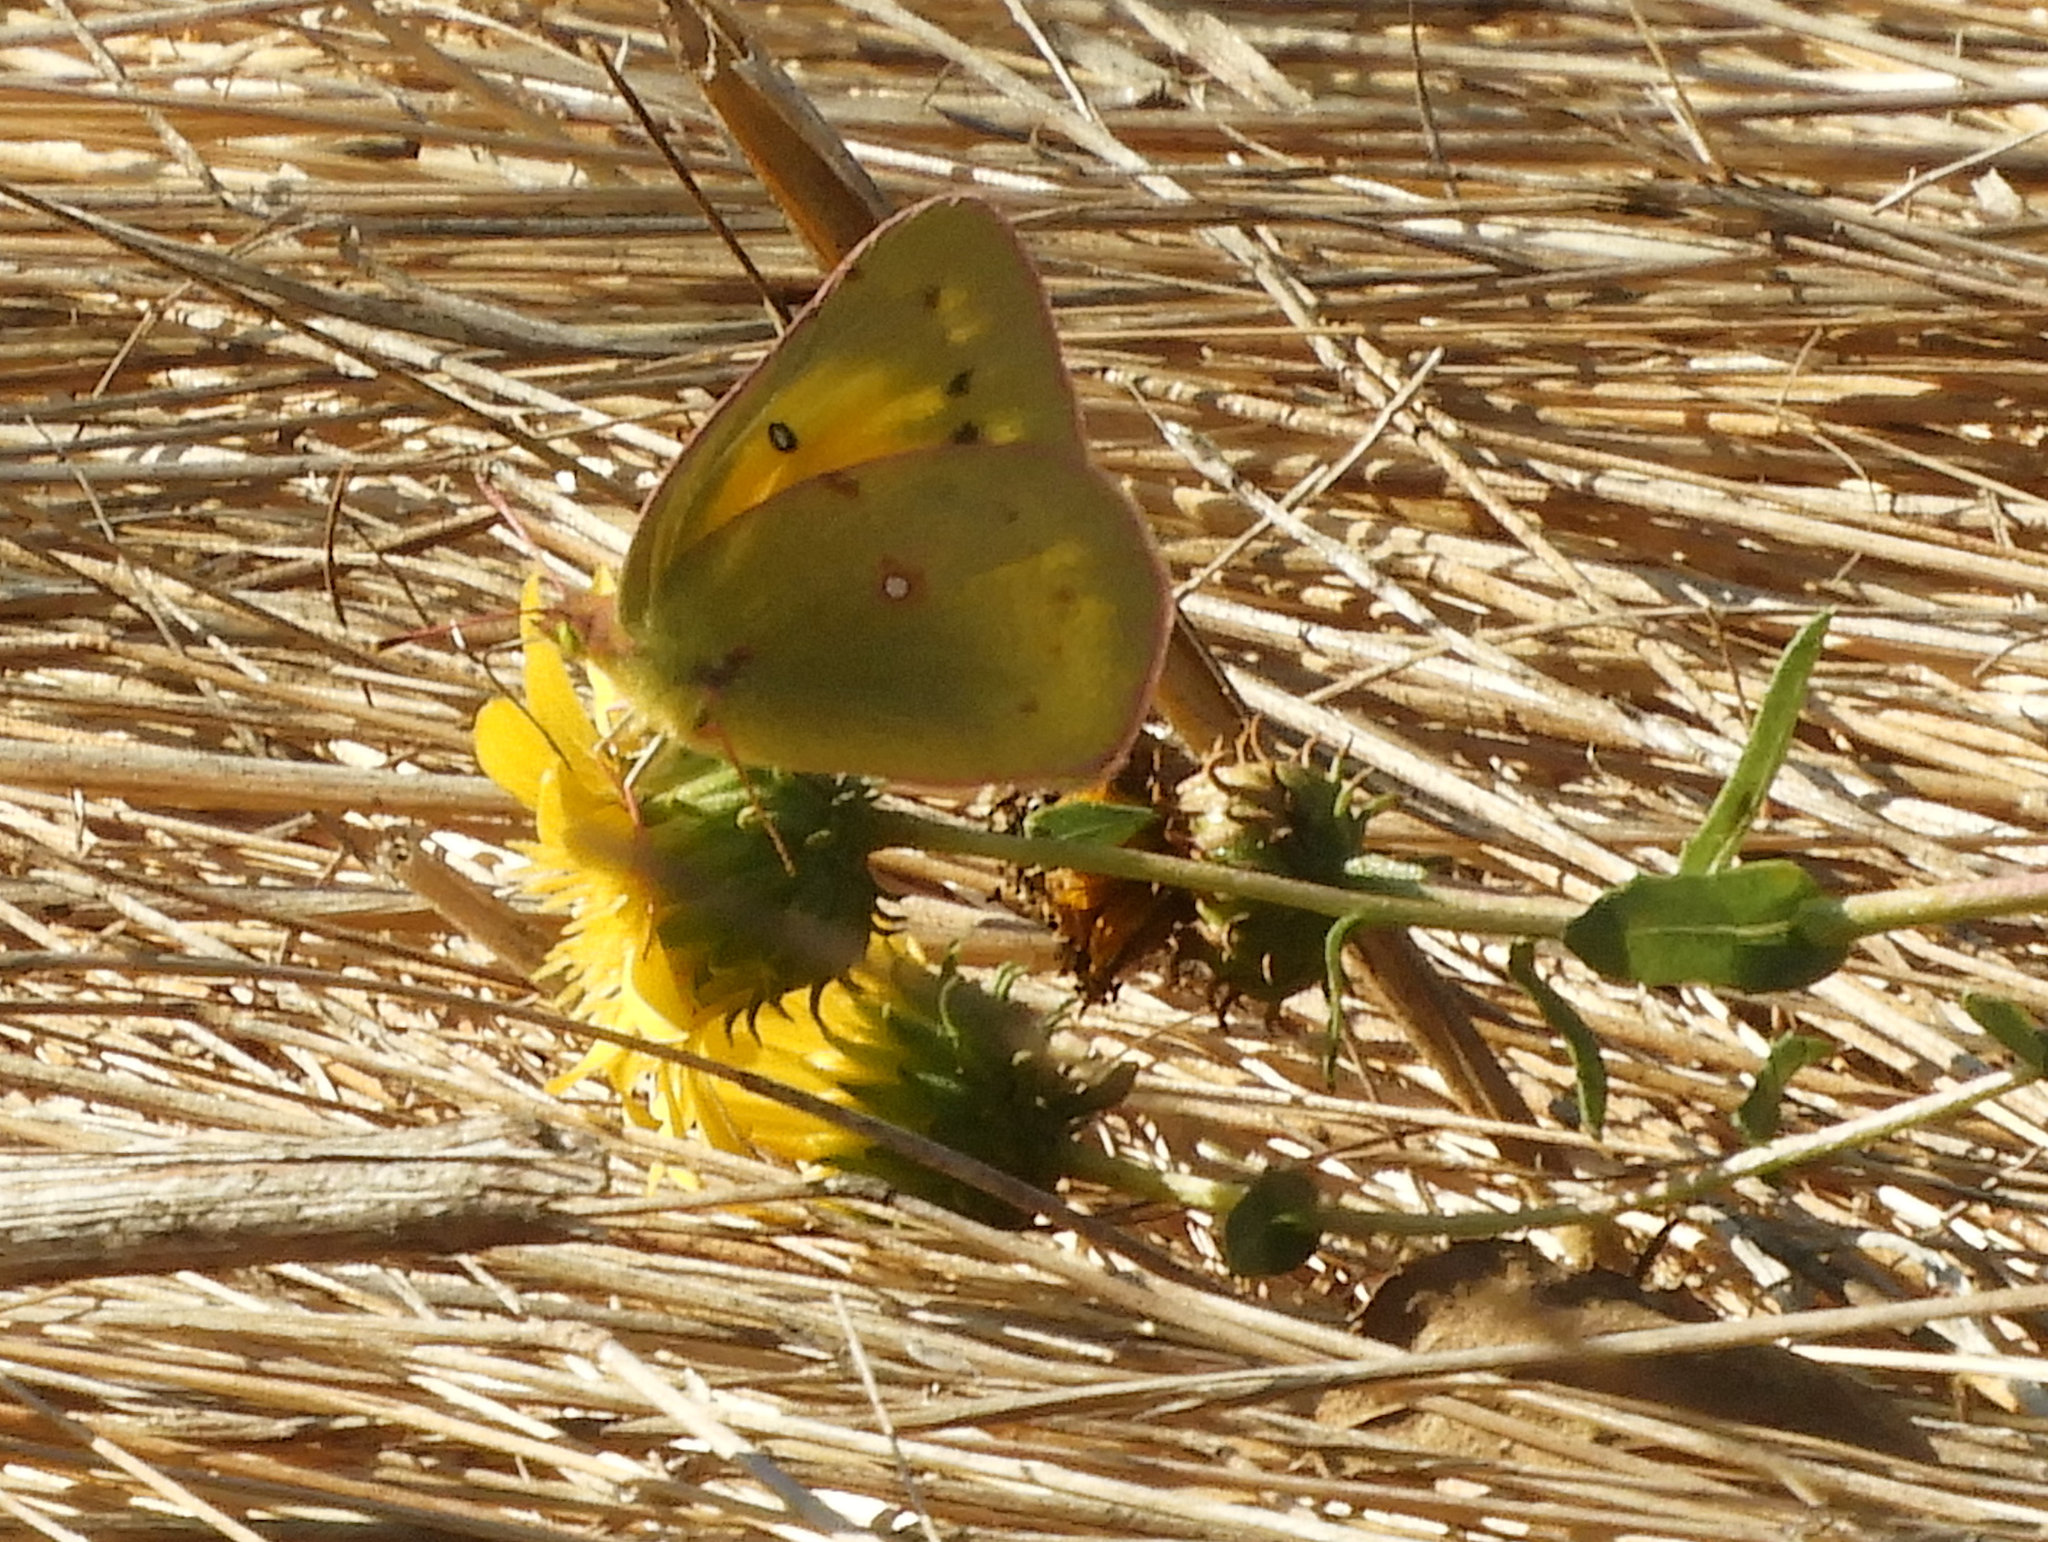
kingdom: Animalia
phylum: Arthropoda
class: Insecta
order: Lepidoptera
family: Pieridae
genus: Colias
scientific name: Colias eurytheme
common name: Alfalfa butterfly
